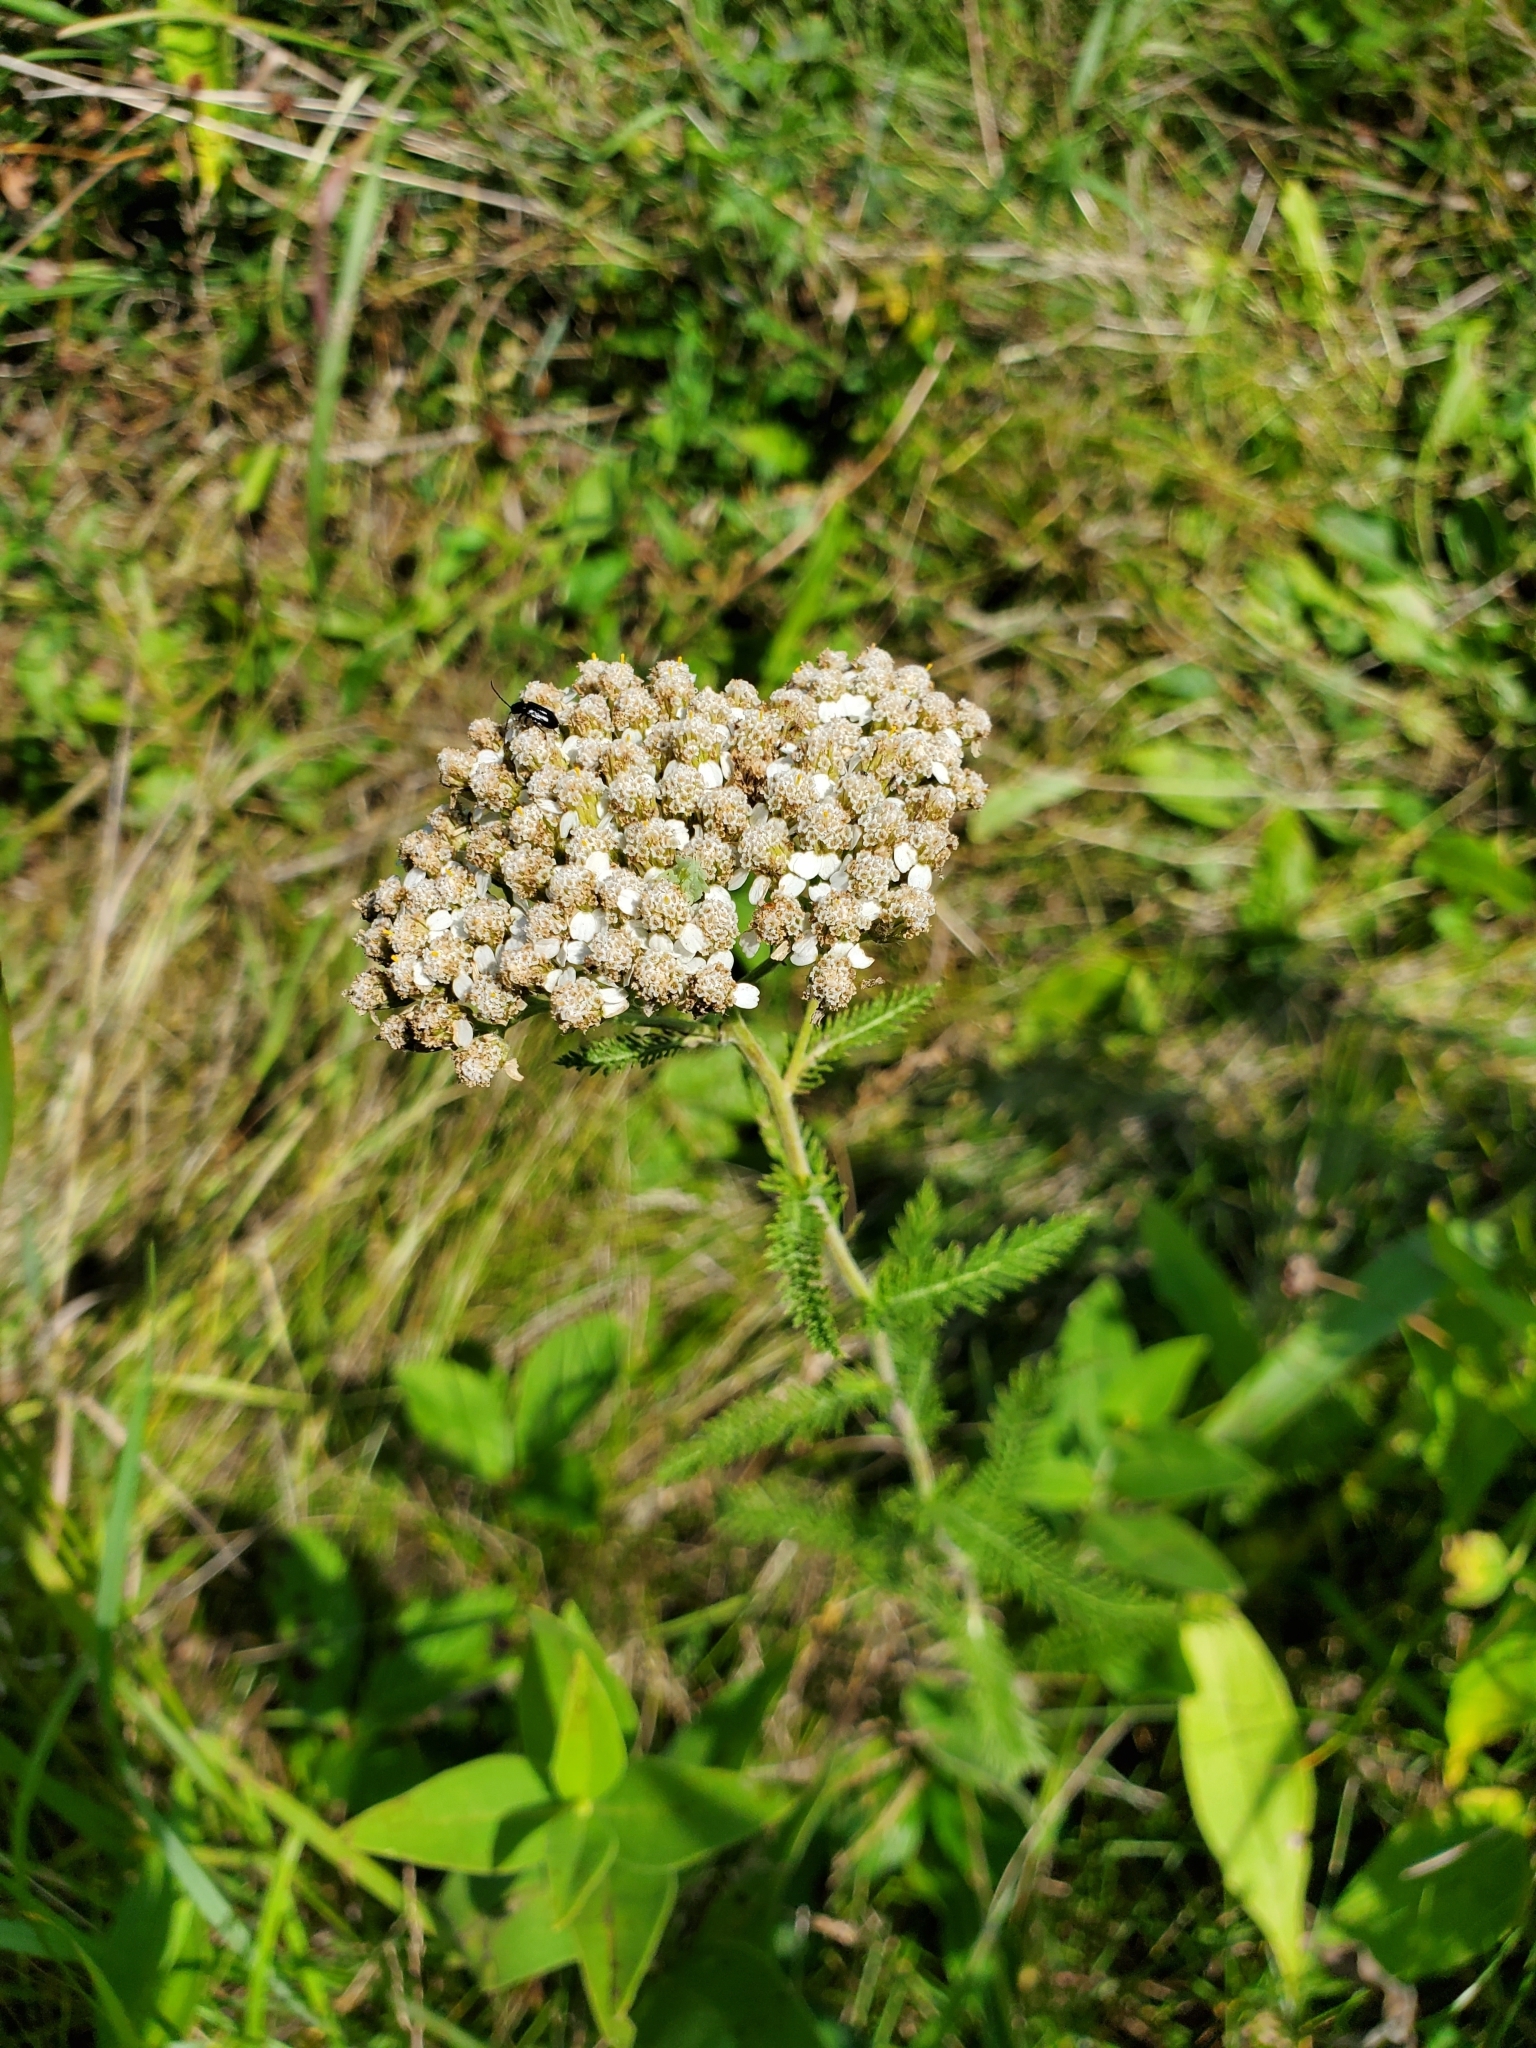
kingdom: Plantae
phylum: Tracheophyta
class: Magnoliopsida
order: Asterales
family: Asteraceae
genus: Achillea
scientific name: Achillea millefolium
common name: Yarrow
